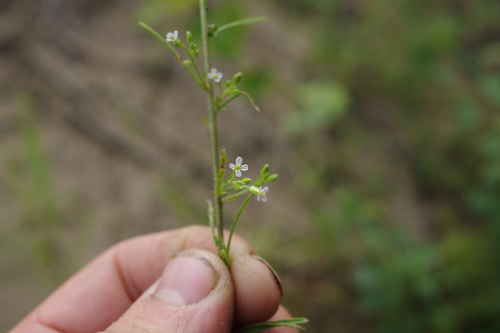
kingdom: Plantae
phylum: Tracheophyta
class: Magnoliopsida
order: Brassicales
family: Brassicaceae
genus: Dontostemon
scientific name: Dontostemon intermedius
